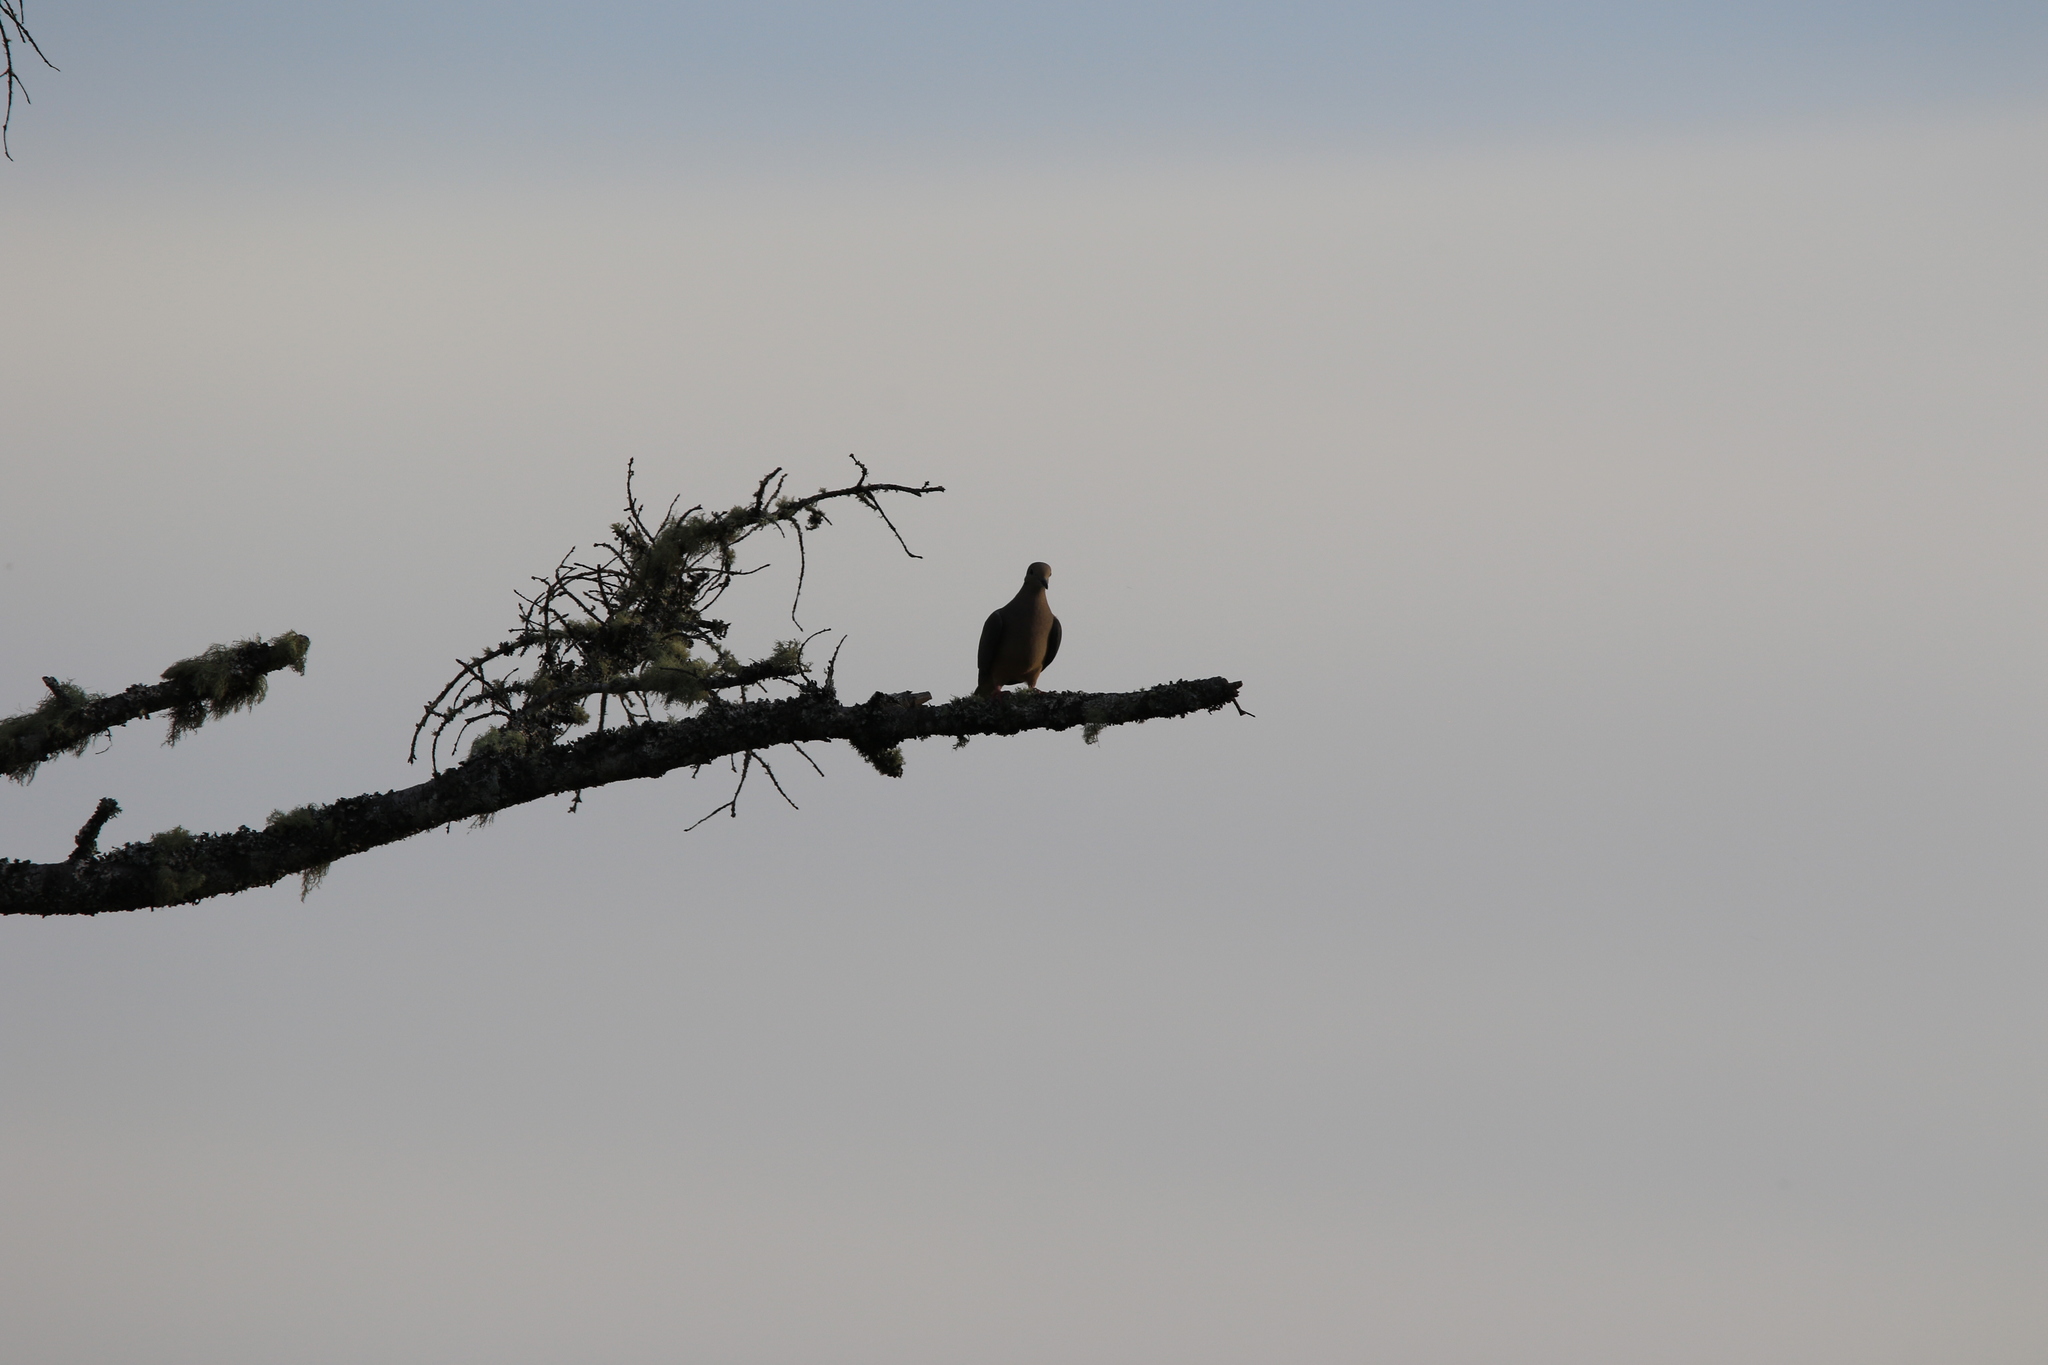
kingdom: Animalia
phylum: Chordata
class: Aves
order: Columbiformes
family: Columbidae
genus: Zenaida
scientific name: Zenaida macroura
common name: Mourning dove
